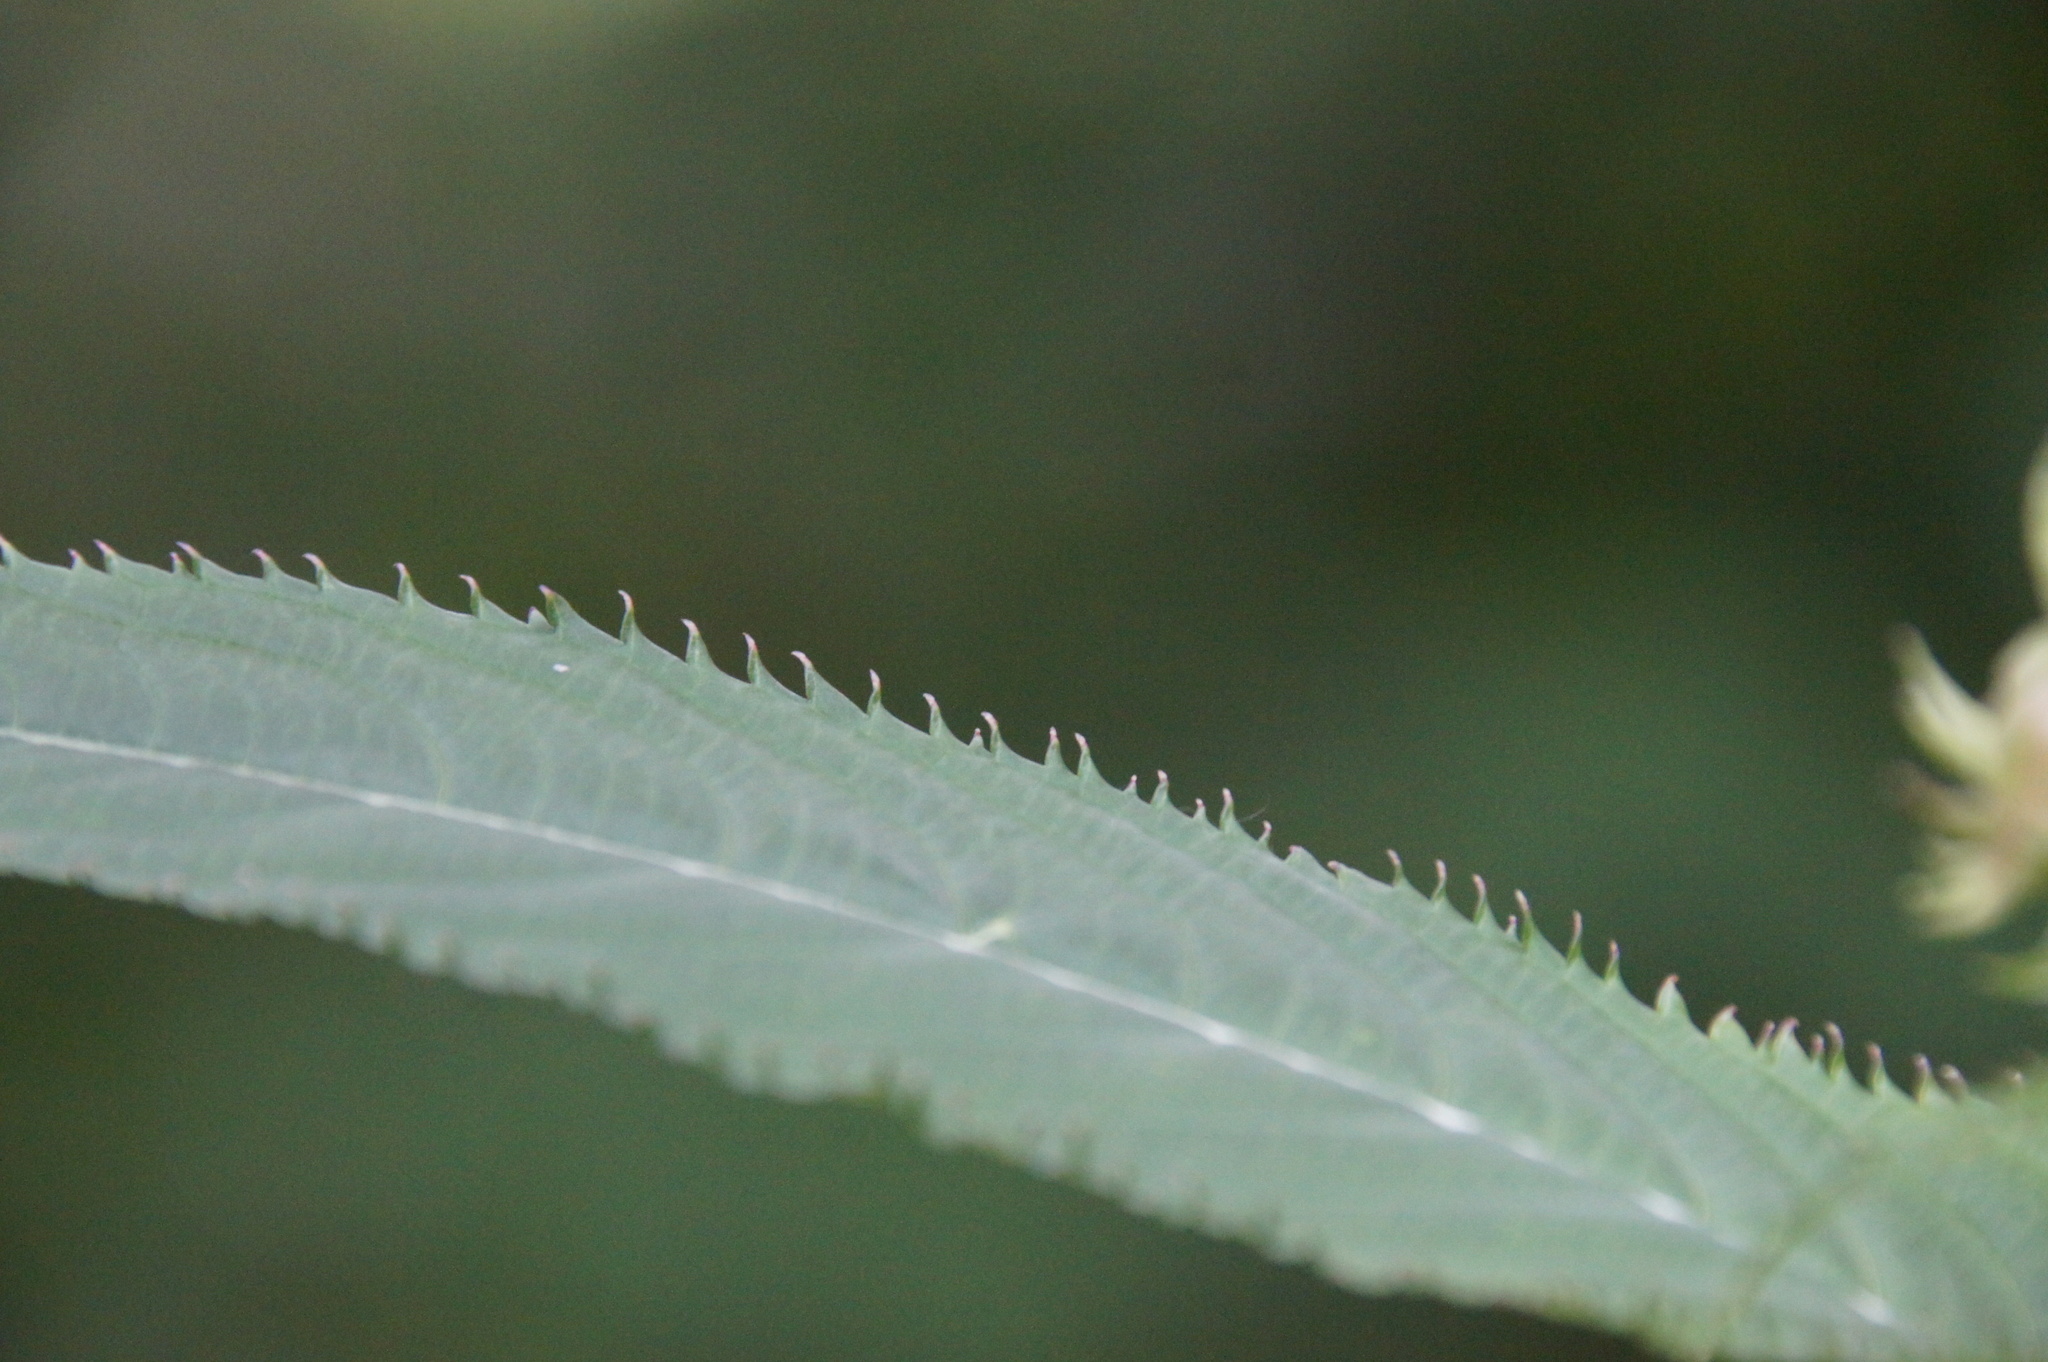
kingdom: Plantae
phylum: Tracheophyta
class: Magnoliopsida
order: Ericales
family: Balsaminaceae
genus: Impatiens
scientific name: Impatiens glandulifera
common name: Himalayan balsam
